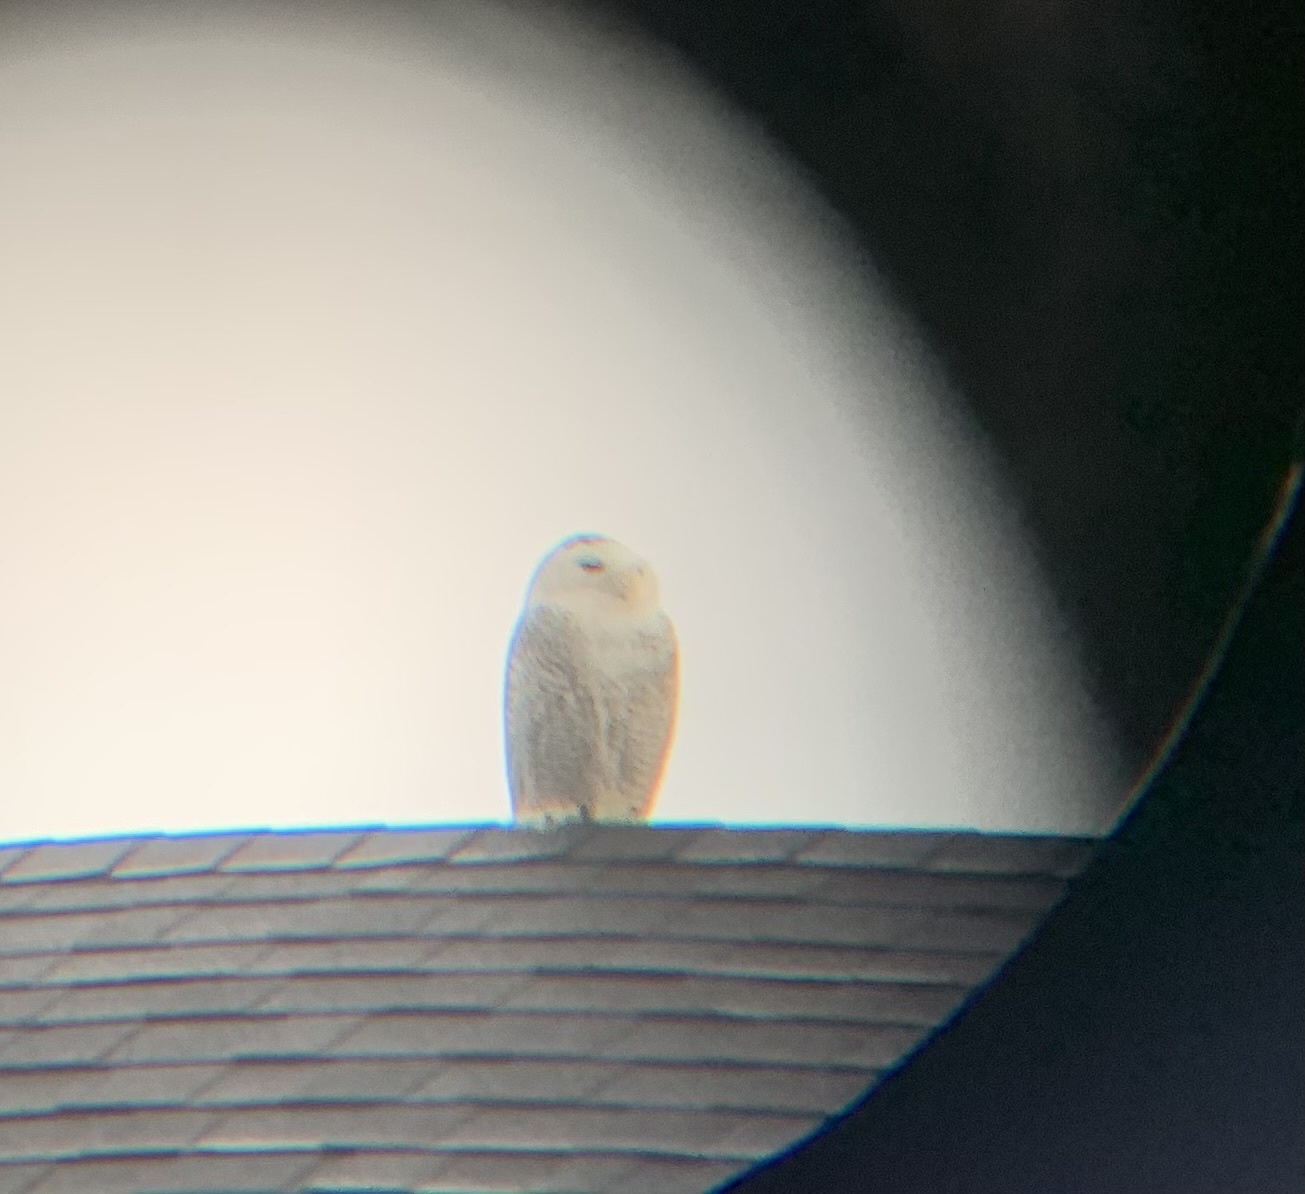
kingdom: Animalia
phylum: Chordata
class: Aves
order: Strigiformes
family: Strigidae
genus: Bubo
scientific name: Bubo scandiacus
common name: Snowy owl
